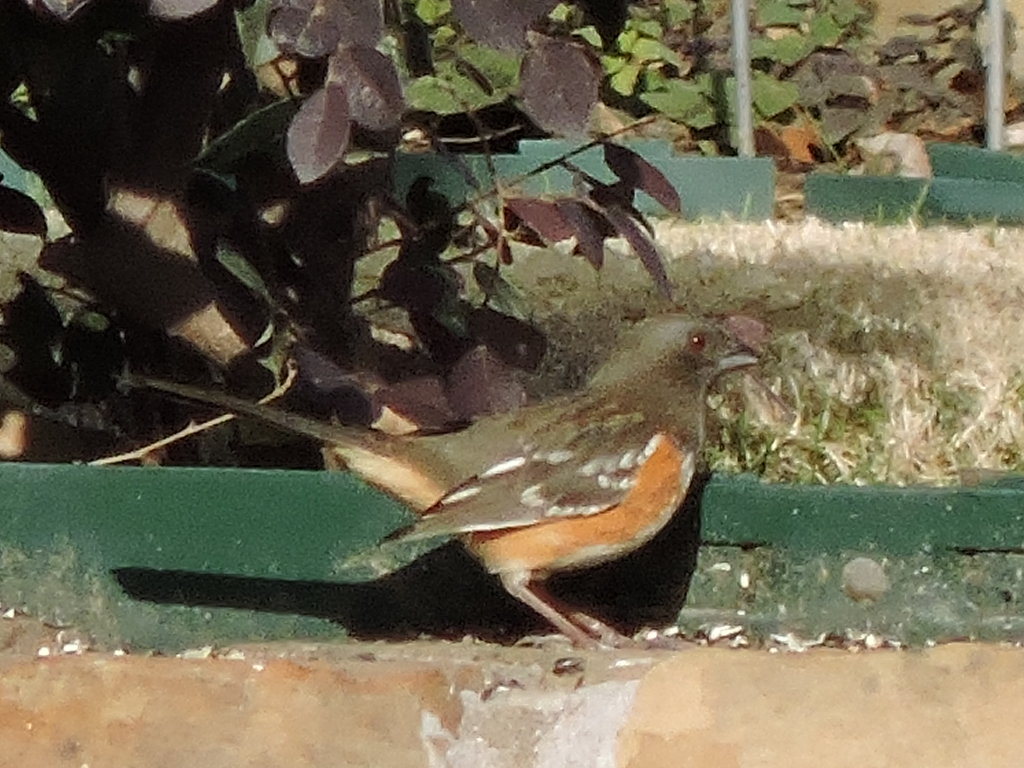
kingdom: Animalia
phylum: Chordata
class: Aves
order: Passeriformes
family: Passerellidae
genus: Pipilo
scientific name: Pipilo maculatus
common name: Spotted towhee
